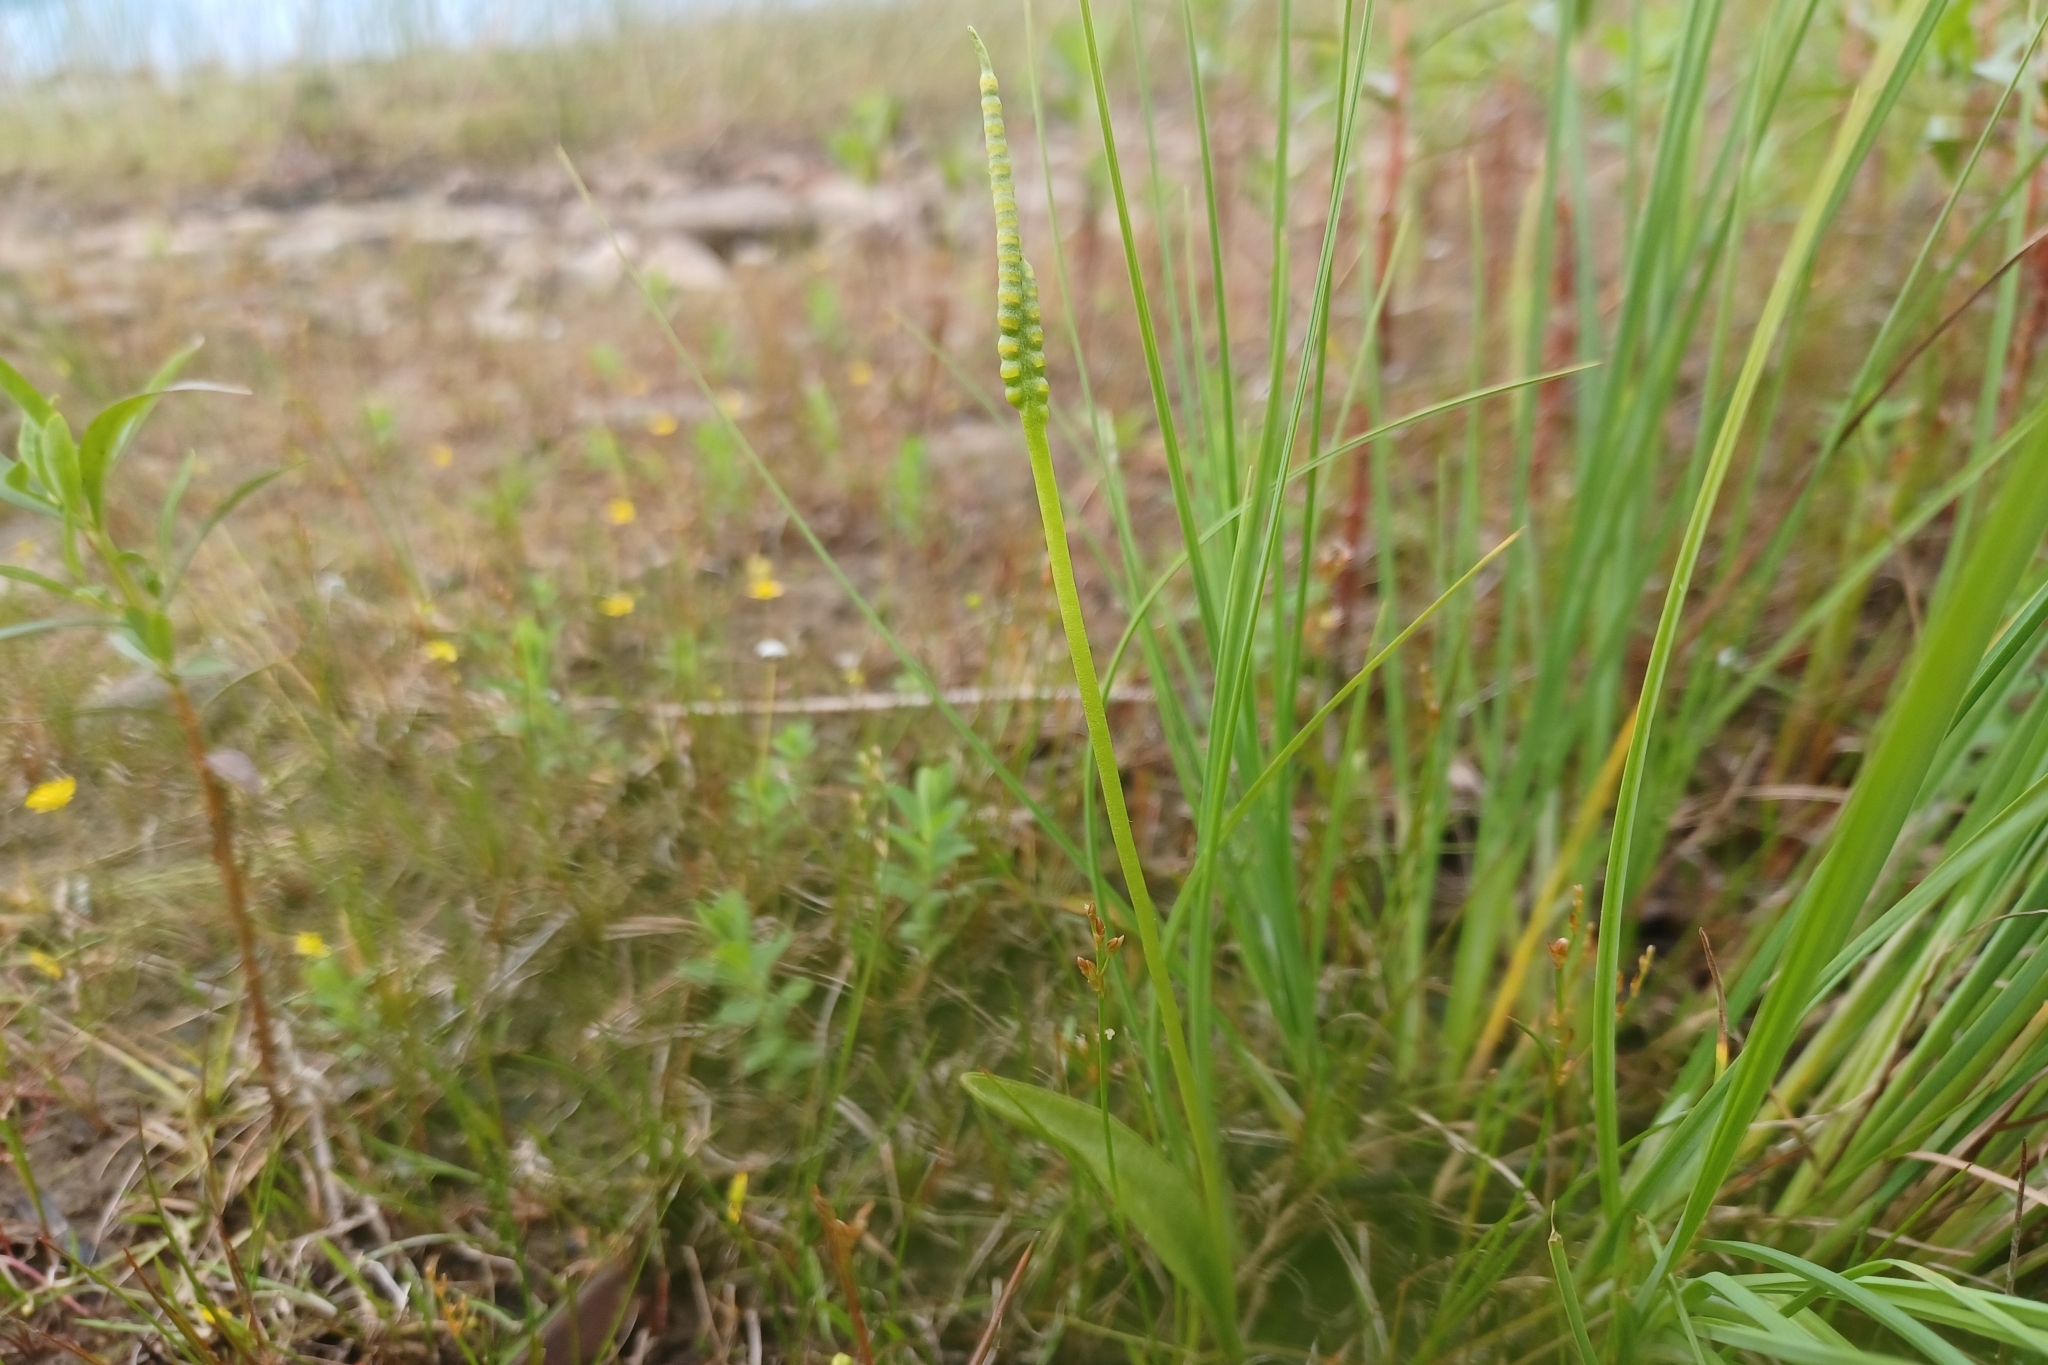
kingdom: Plantae
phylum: Tracheophyta
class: Polypodiopsida
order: Ophioglossales
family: Ophioglossaceae
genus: Ophioglossum
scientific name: Ophioglossum pusillum
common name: Northern adder's-tongue
